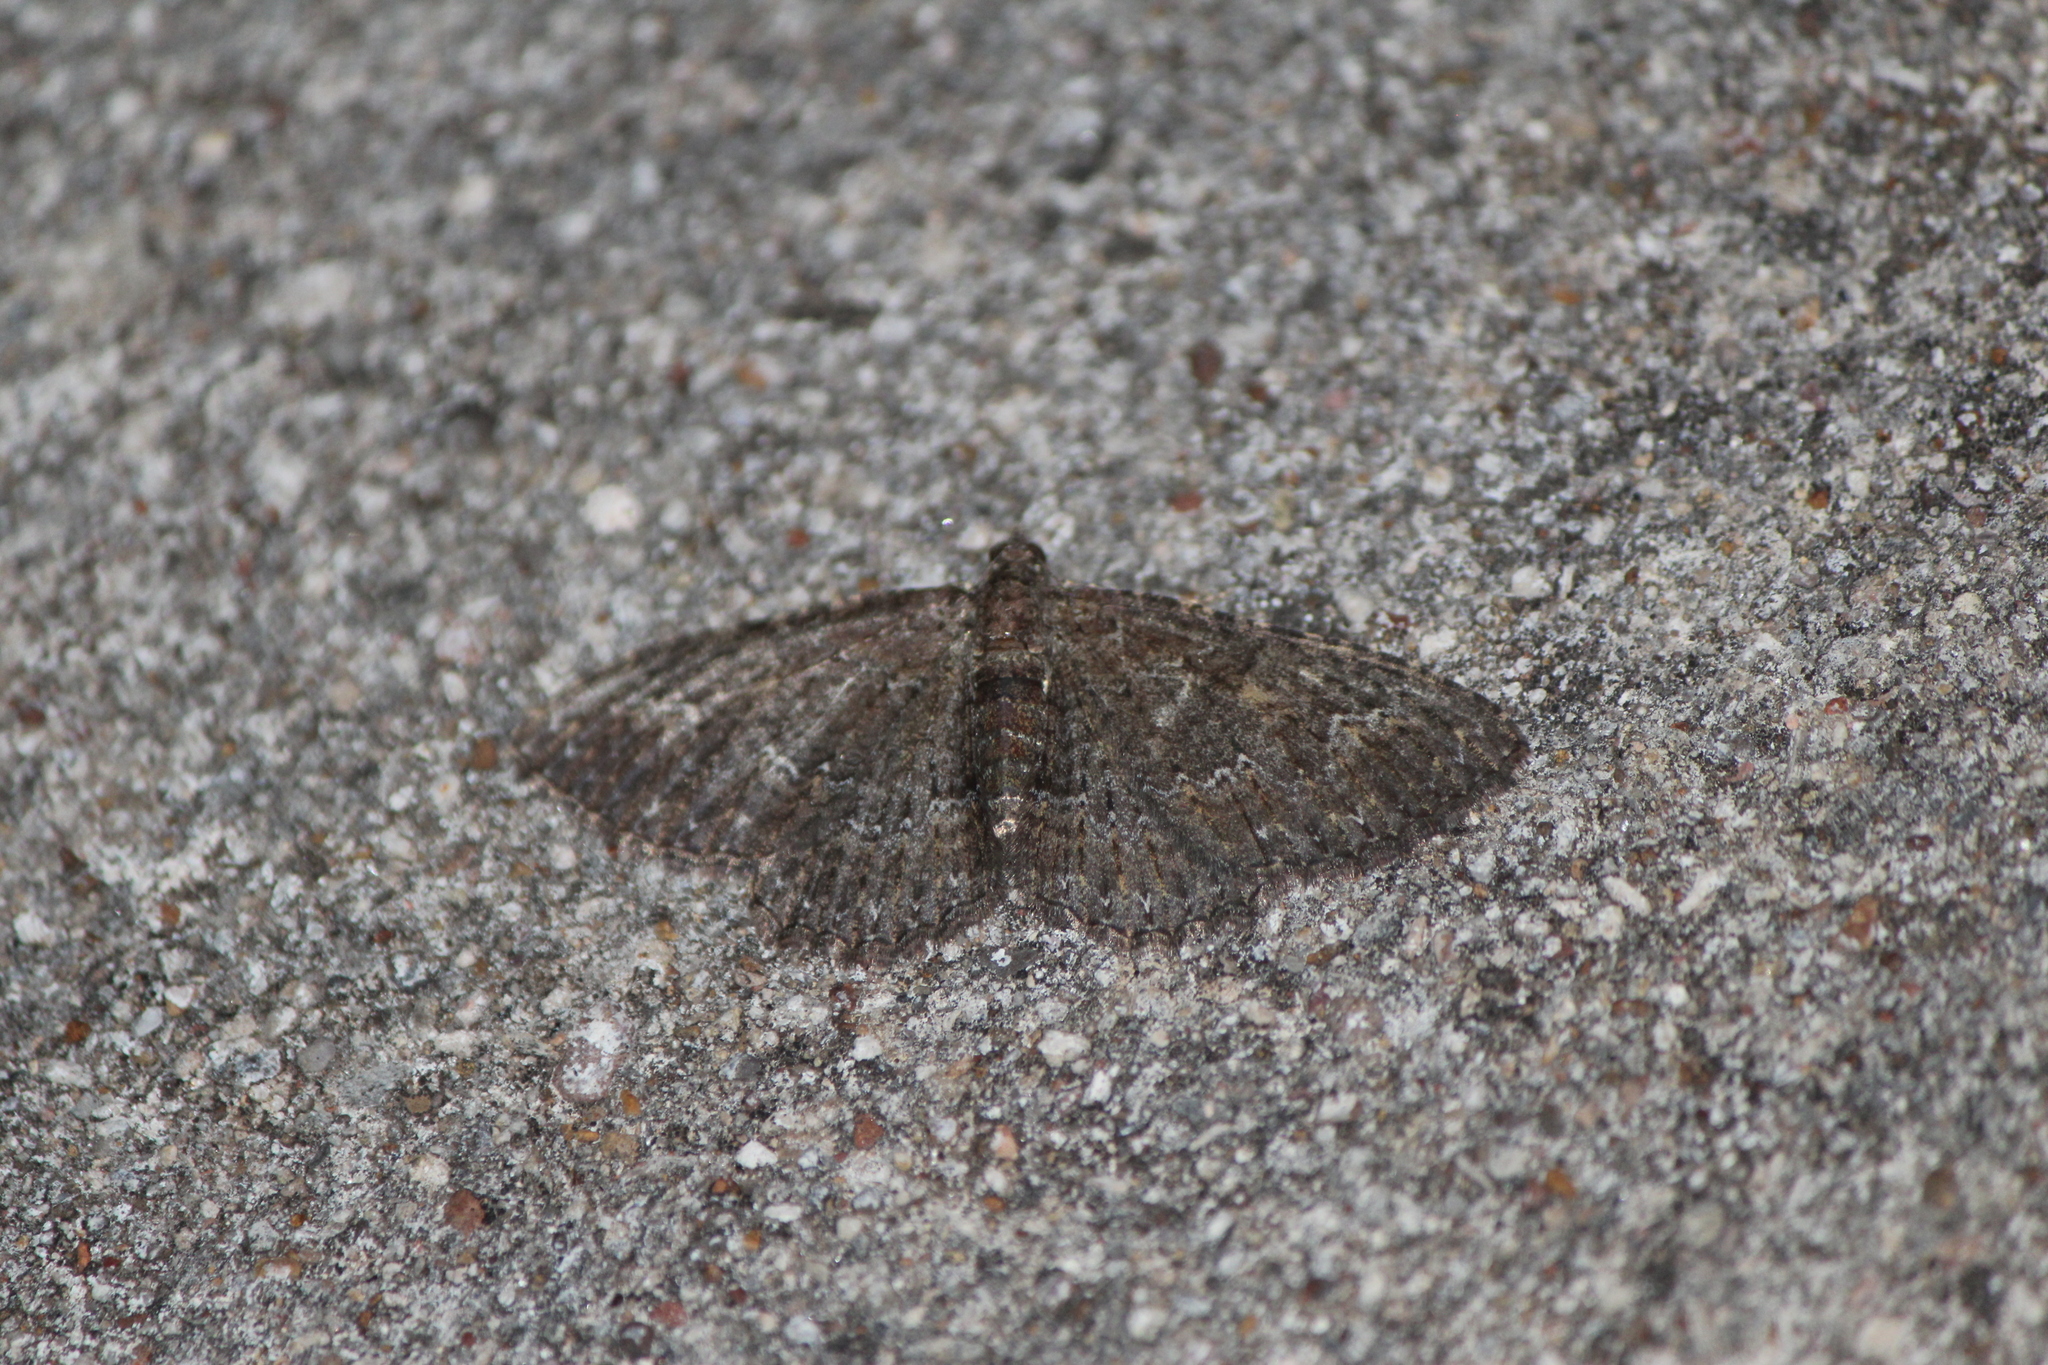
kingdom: Animalia
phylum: Arthropoda
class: Insecta
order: Lepidoptera
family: Geometridae
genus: Disclisioprocta
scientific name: Disclisioprocta stellata
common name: Somber carpet
